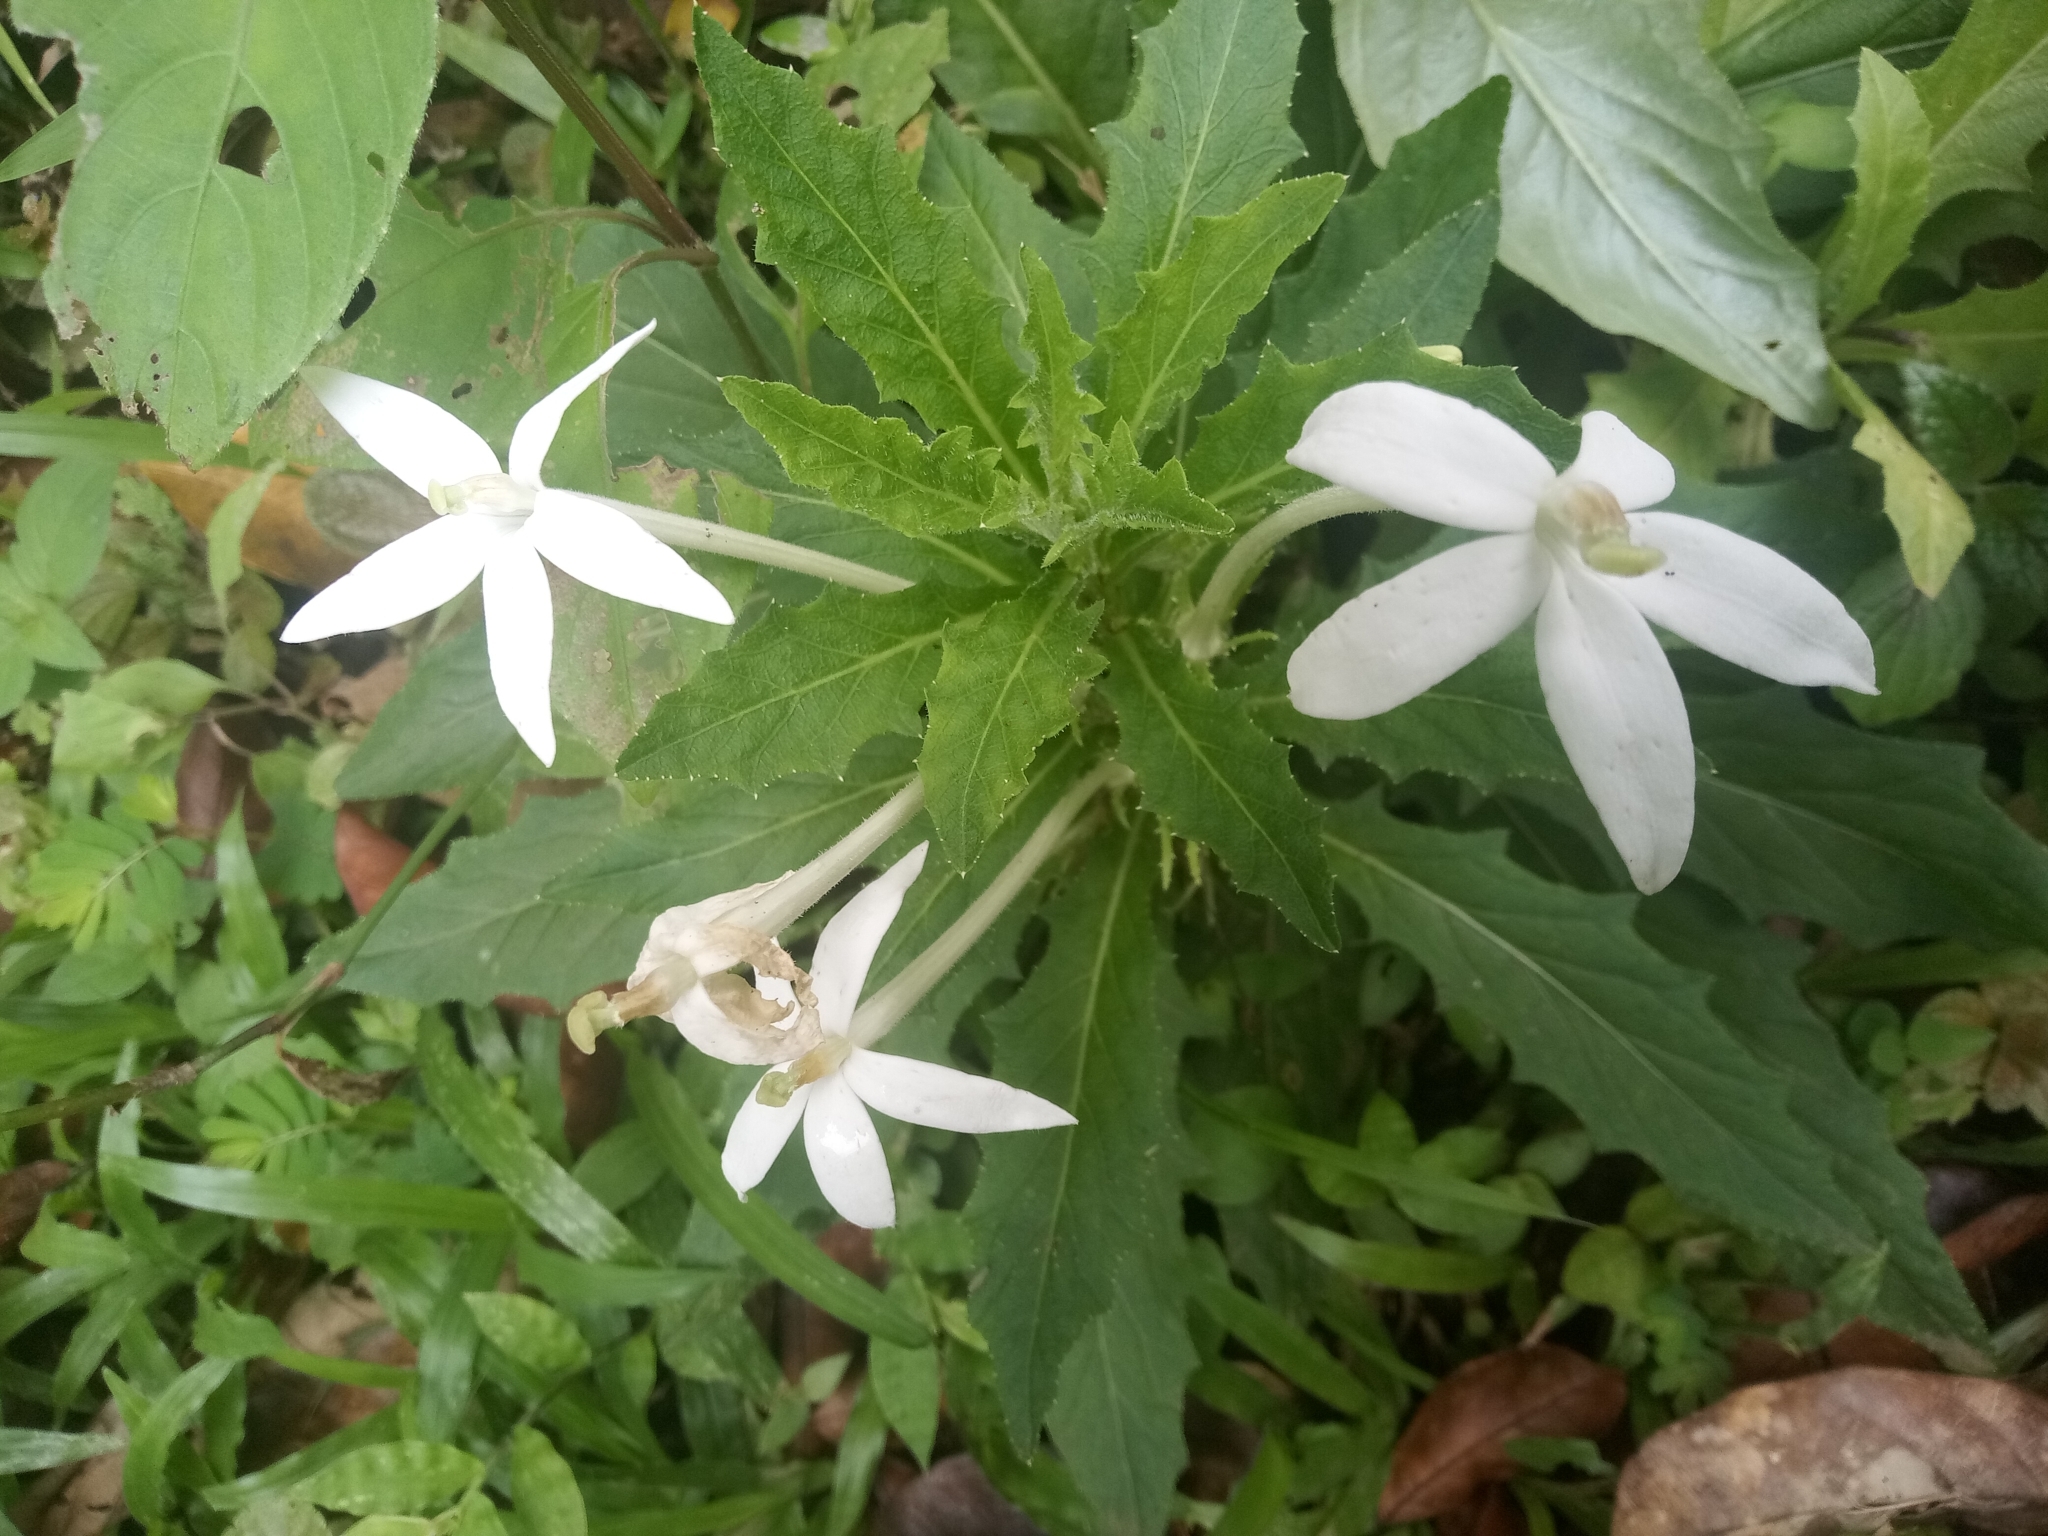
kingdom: Plantae
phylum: Tracheophyta
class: Magnoliopsida
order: Asterales
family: Campanulaceae
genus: Hippobroma
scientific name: Hippobroma longiflora
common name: Madamfate
